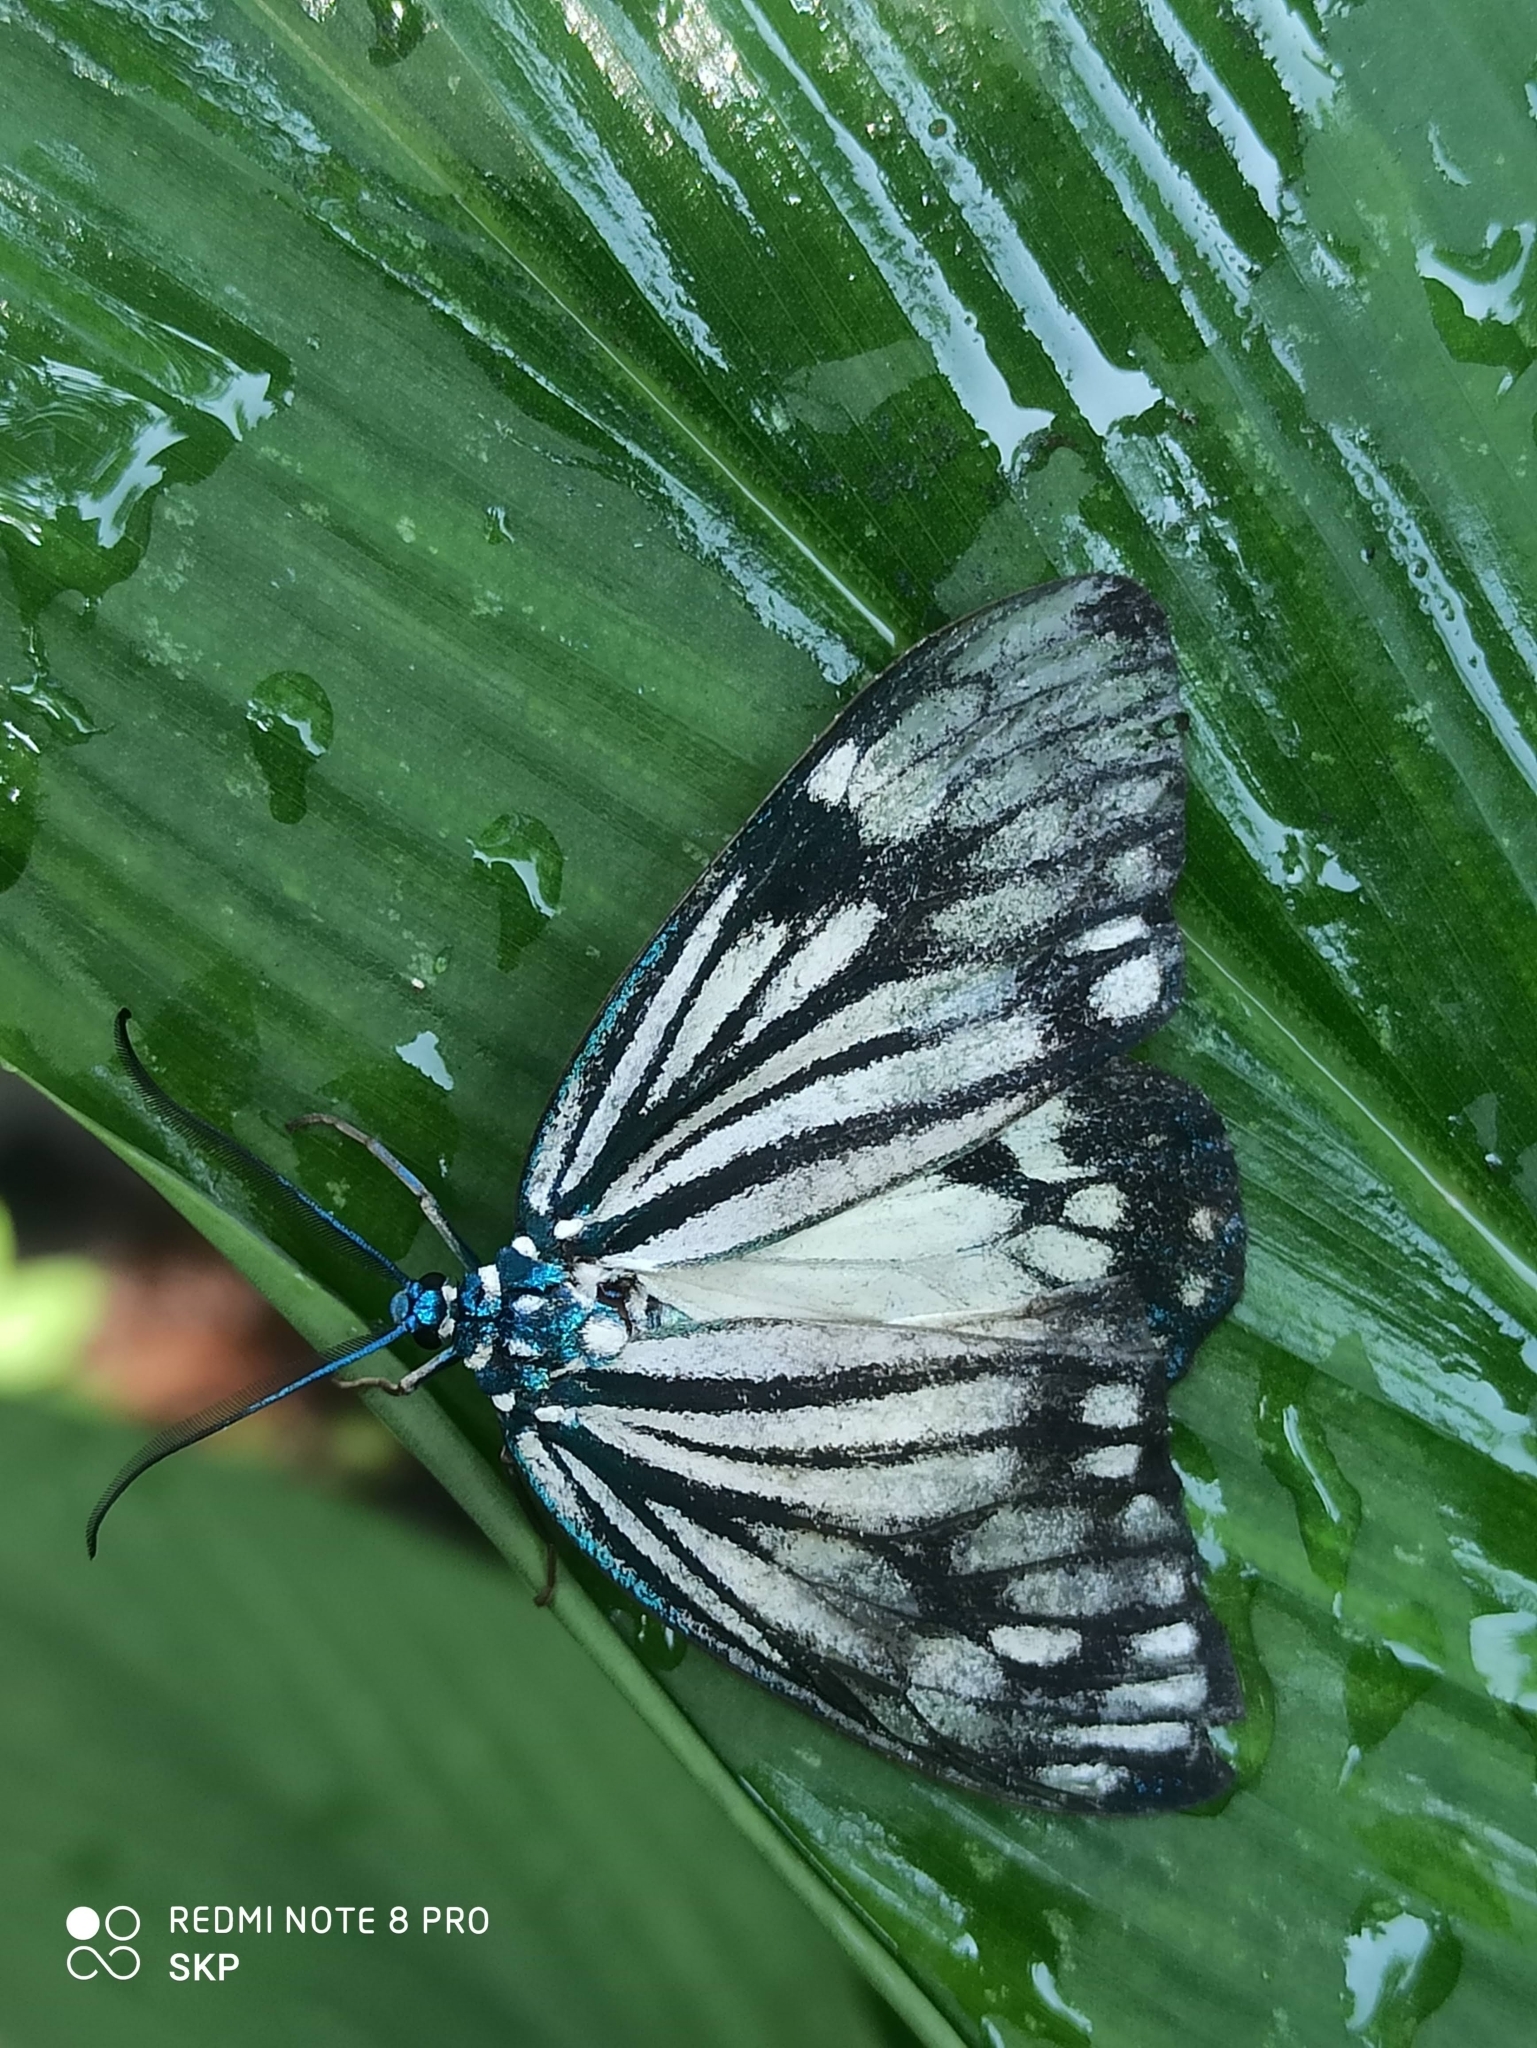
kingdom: Animalia
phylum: Arthropoda
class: Insecta
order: Lepidoptera
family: Zygaenidae
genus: Cyclosia
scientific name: Cyclosia
